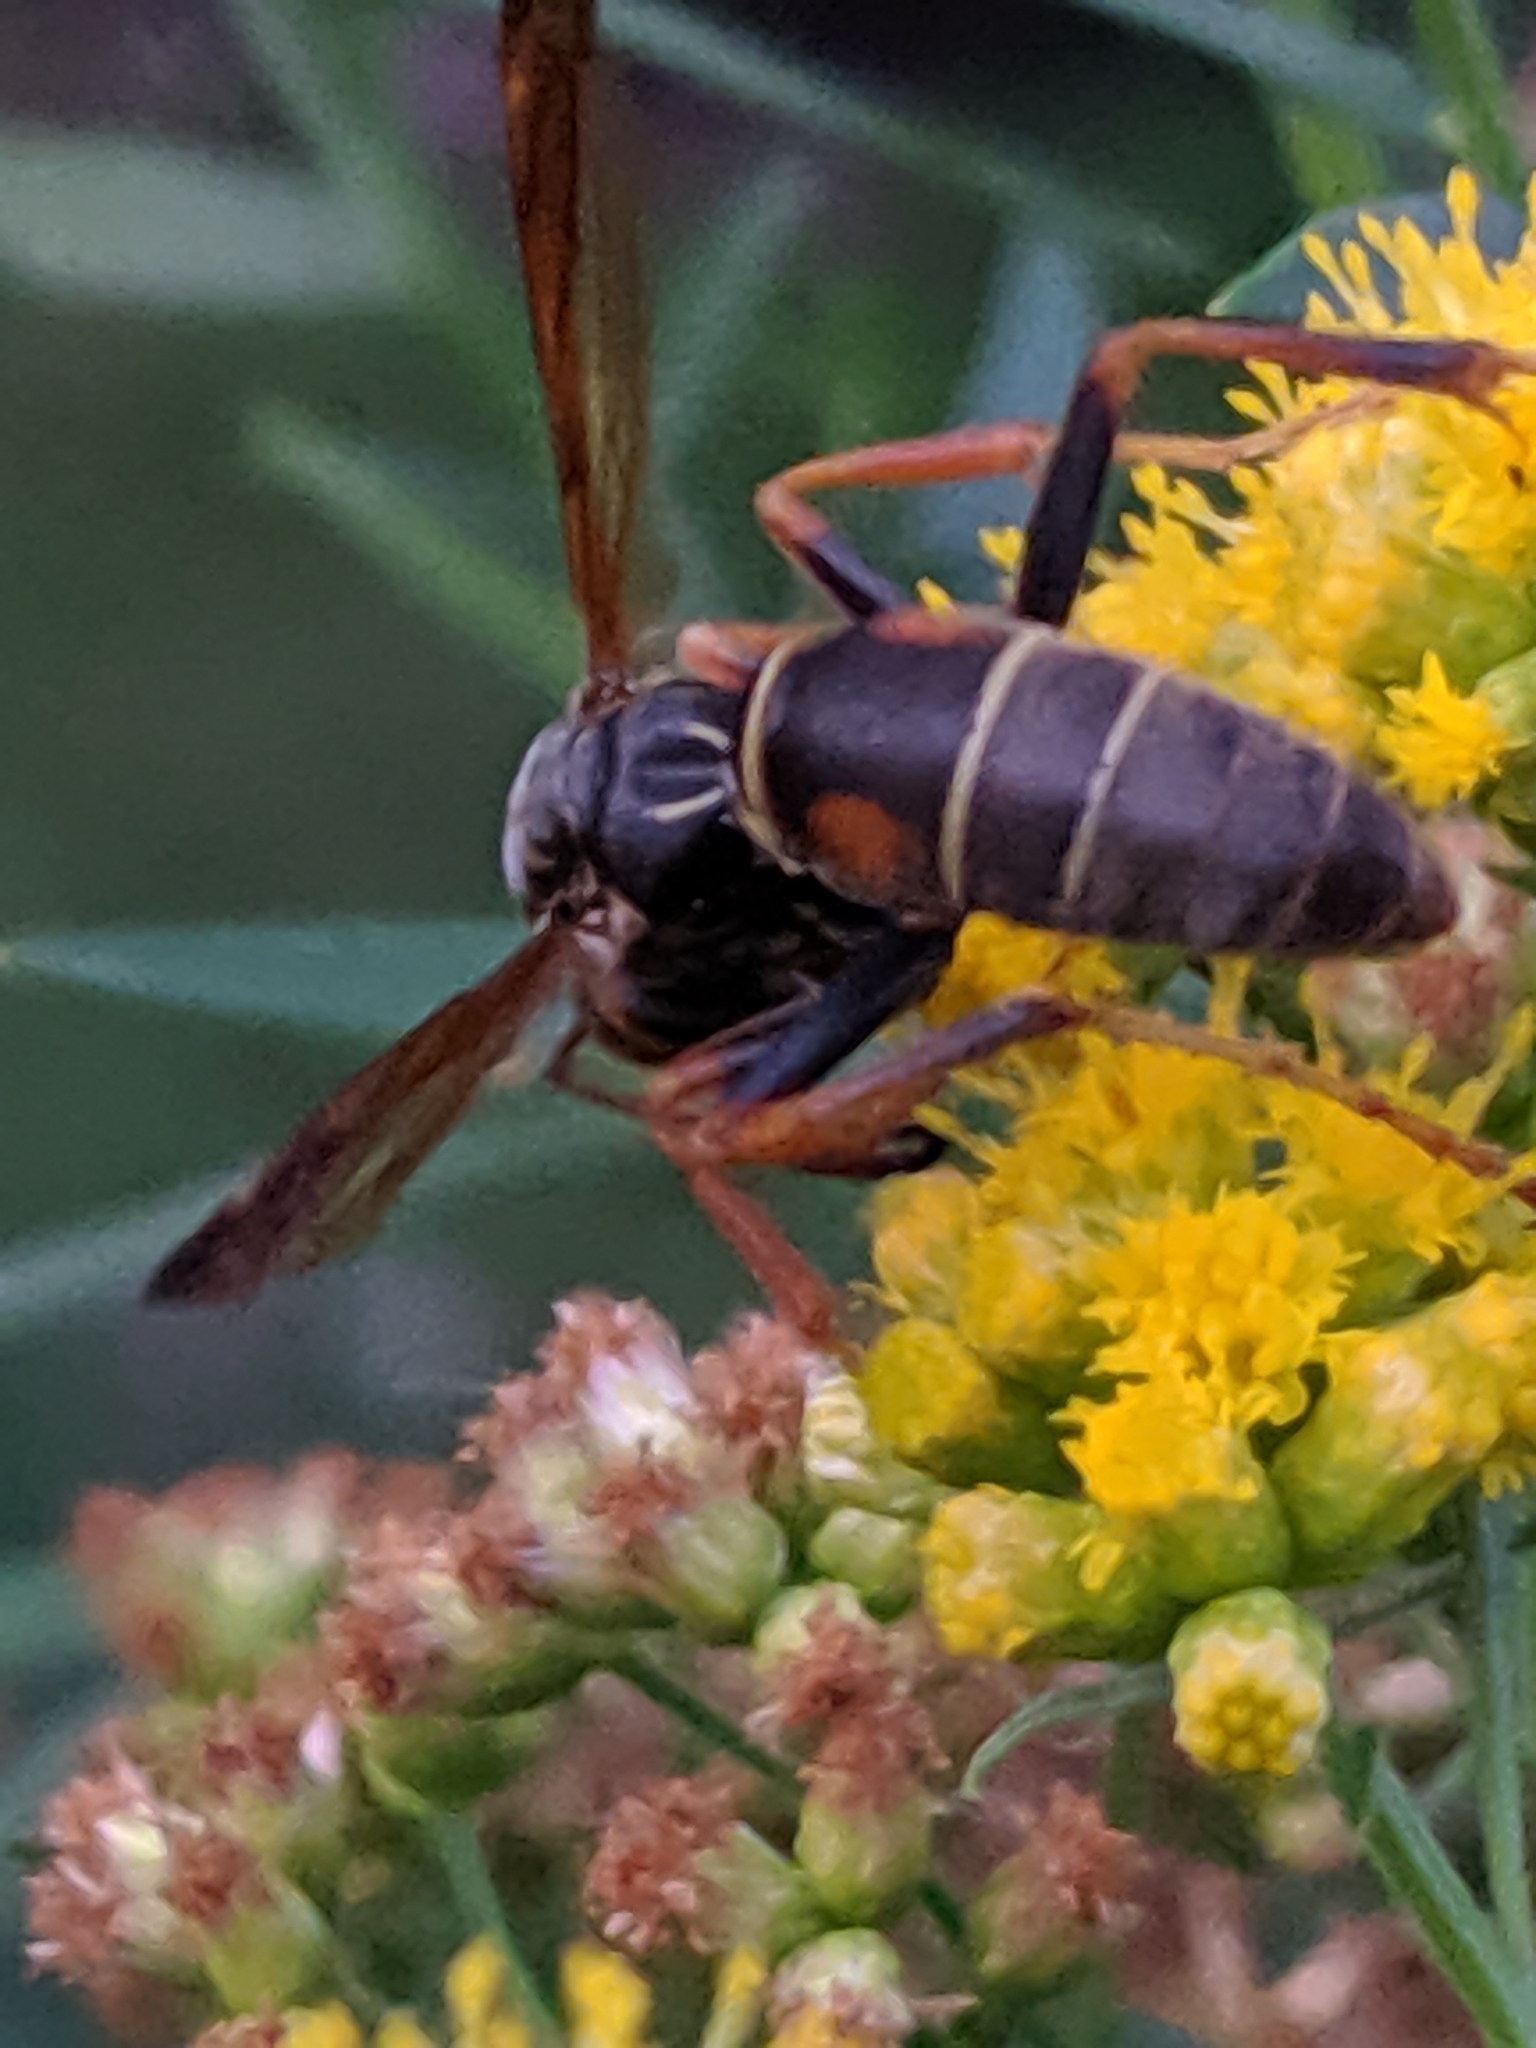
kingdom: Animalia
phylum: Arthropoda
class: Insecta
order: Hymenoptera
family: Eumenidae
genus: Polistes
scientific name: Polistes fuscatus
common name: Dark paper wasp
